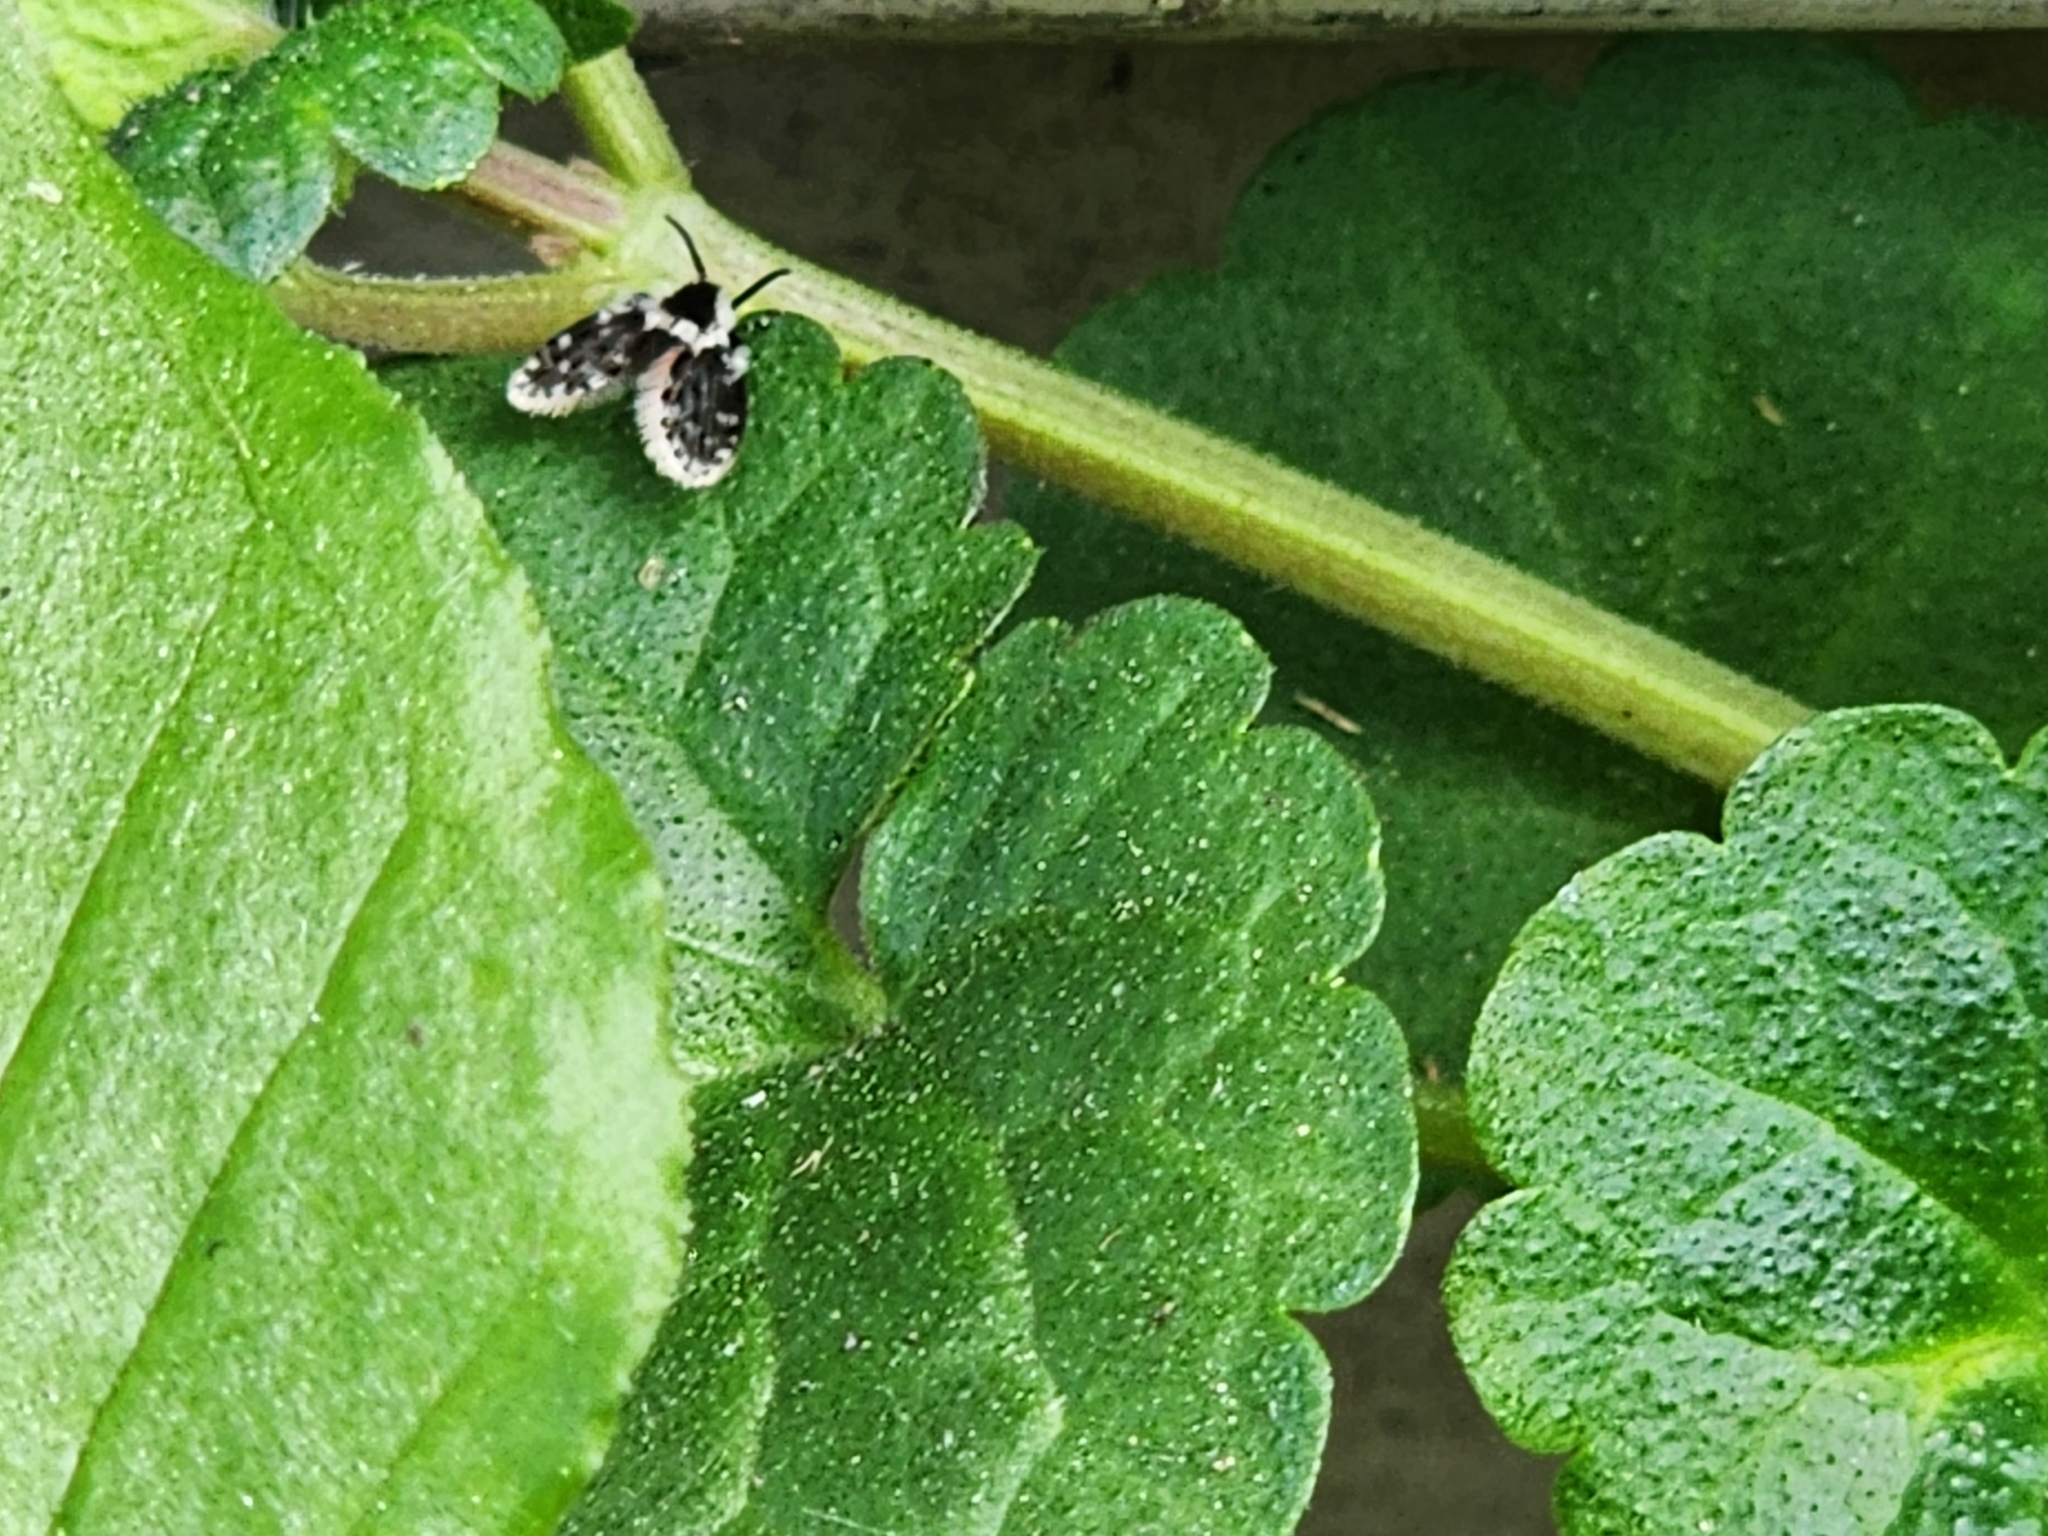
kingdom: Animalia
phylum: Arthropoda
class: Insecta
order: Diptera
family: Psychodidae
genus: Lepiseodina
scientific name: Lepiseodina
